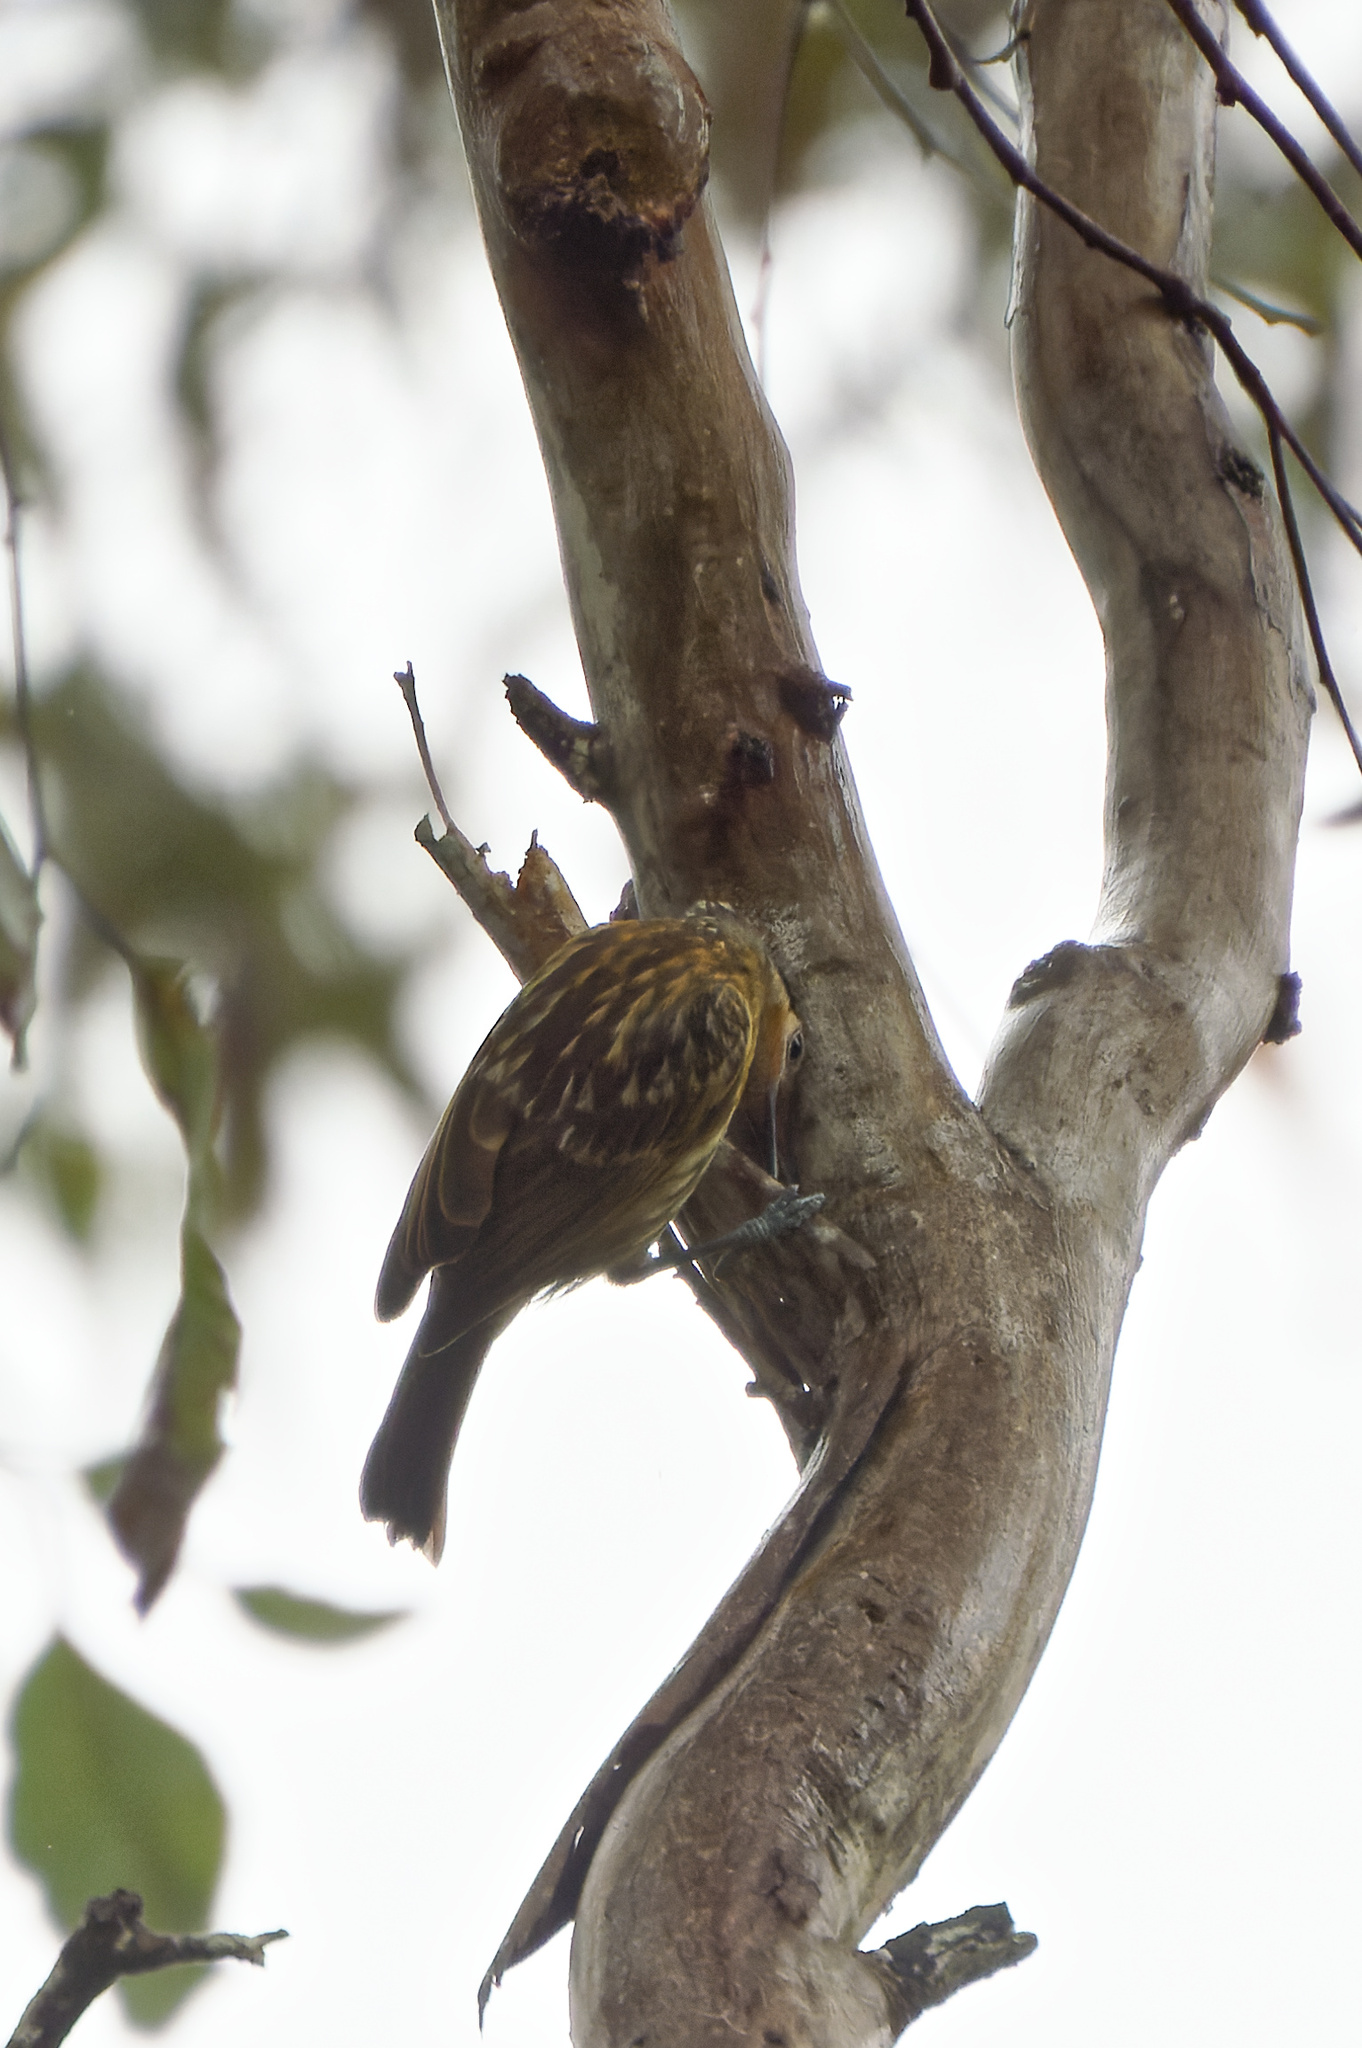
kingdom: Animalia
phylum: Chordata
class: Aves
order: Passeriformes
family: Meliphagidae
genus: Xanthotis
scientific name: Xanthotis macleayanus
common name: Macleay's honeyeater
